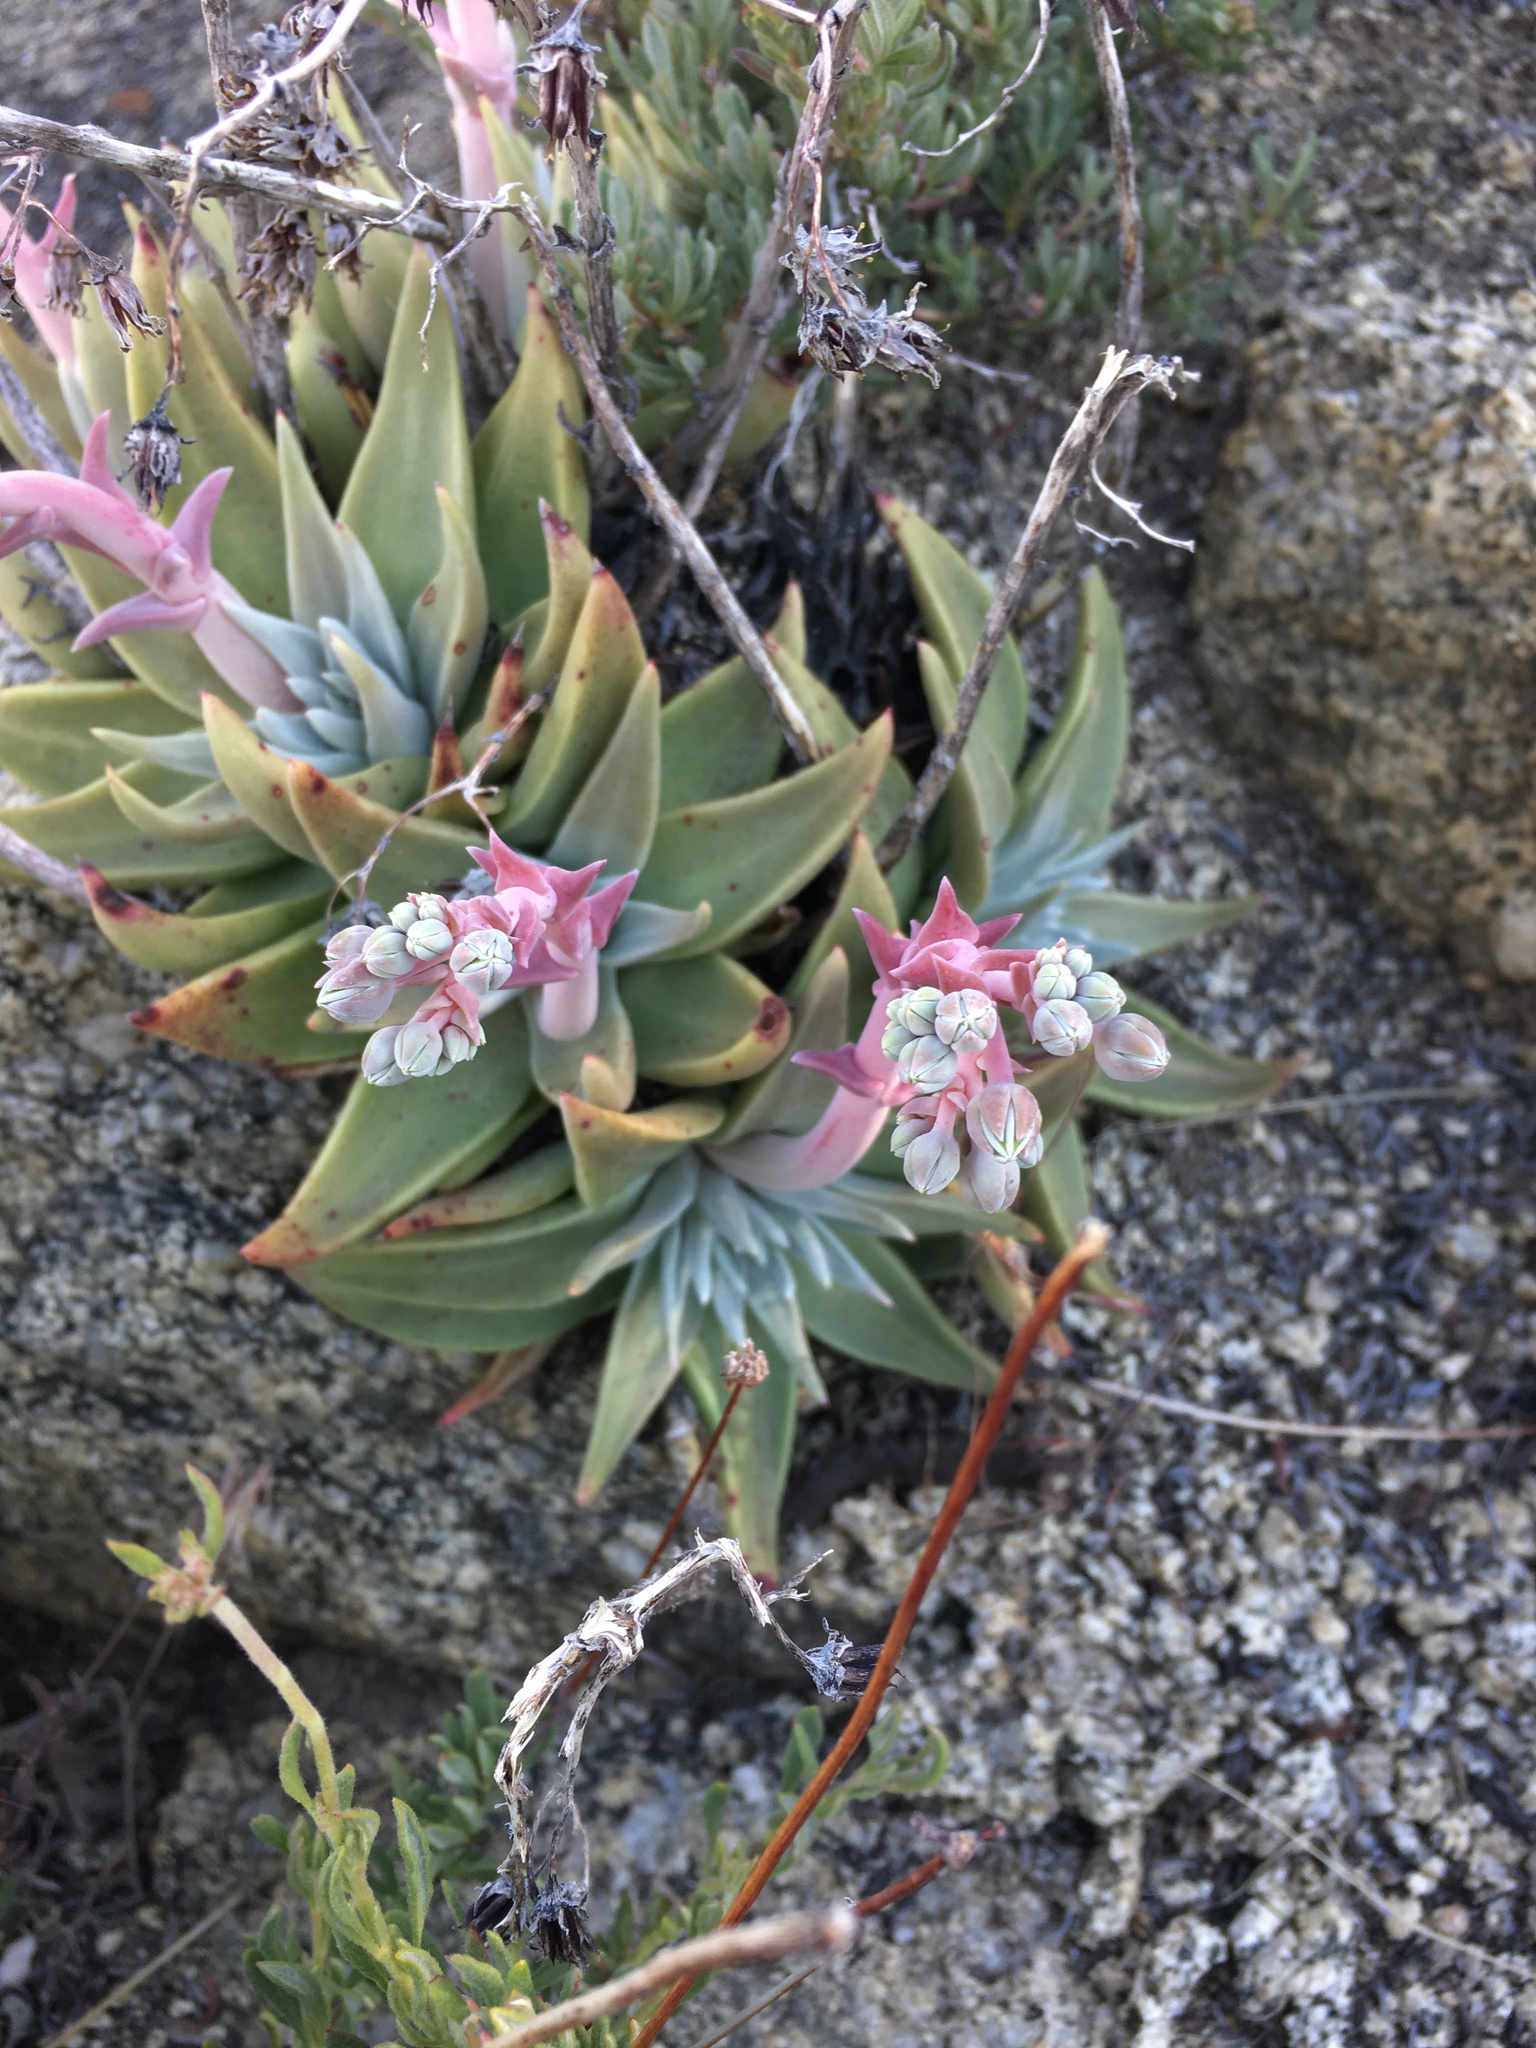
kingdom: Plantae
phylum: Tracheophyta
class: Magnoliopsida
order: Saxifragales
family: Crassulaceae
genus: Dudleya
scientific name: Dudleya saxosa
